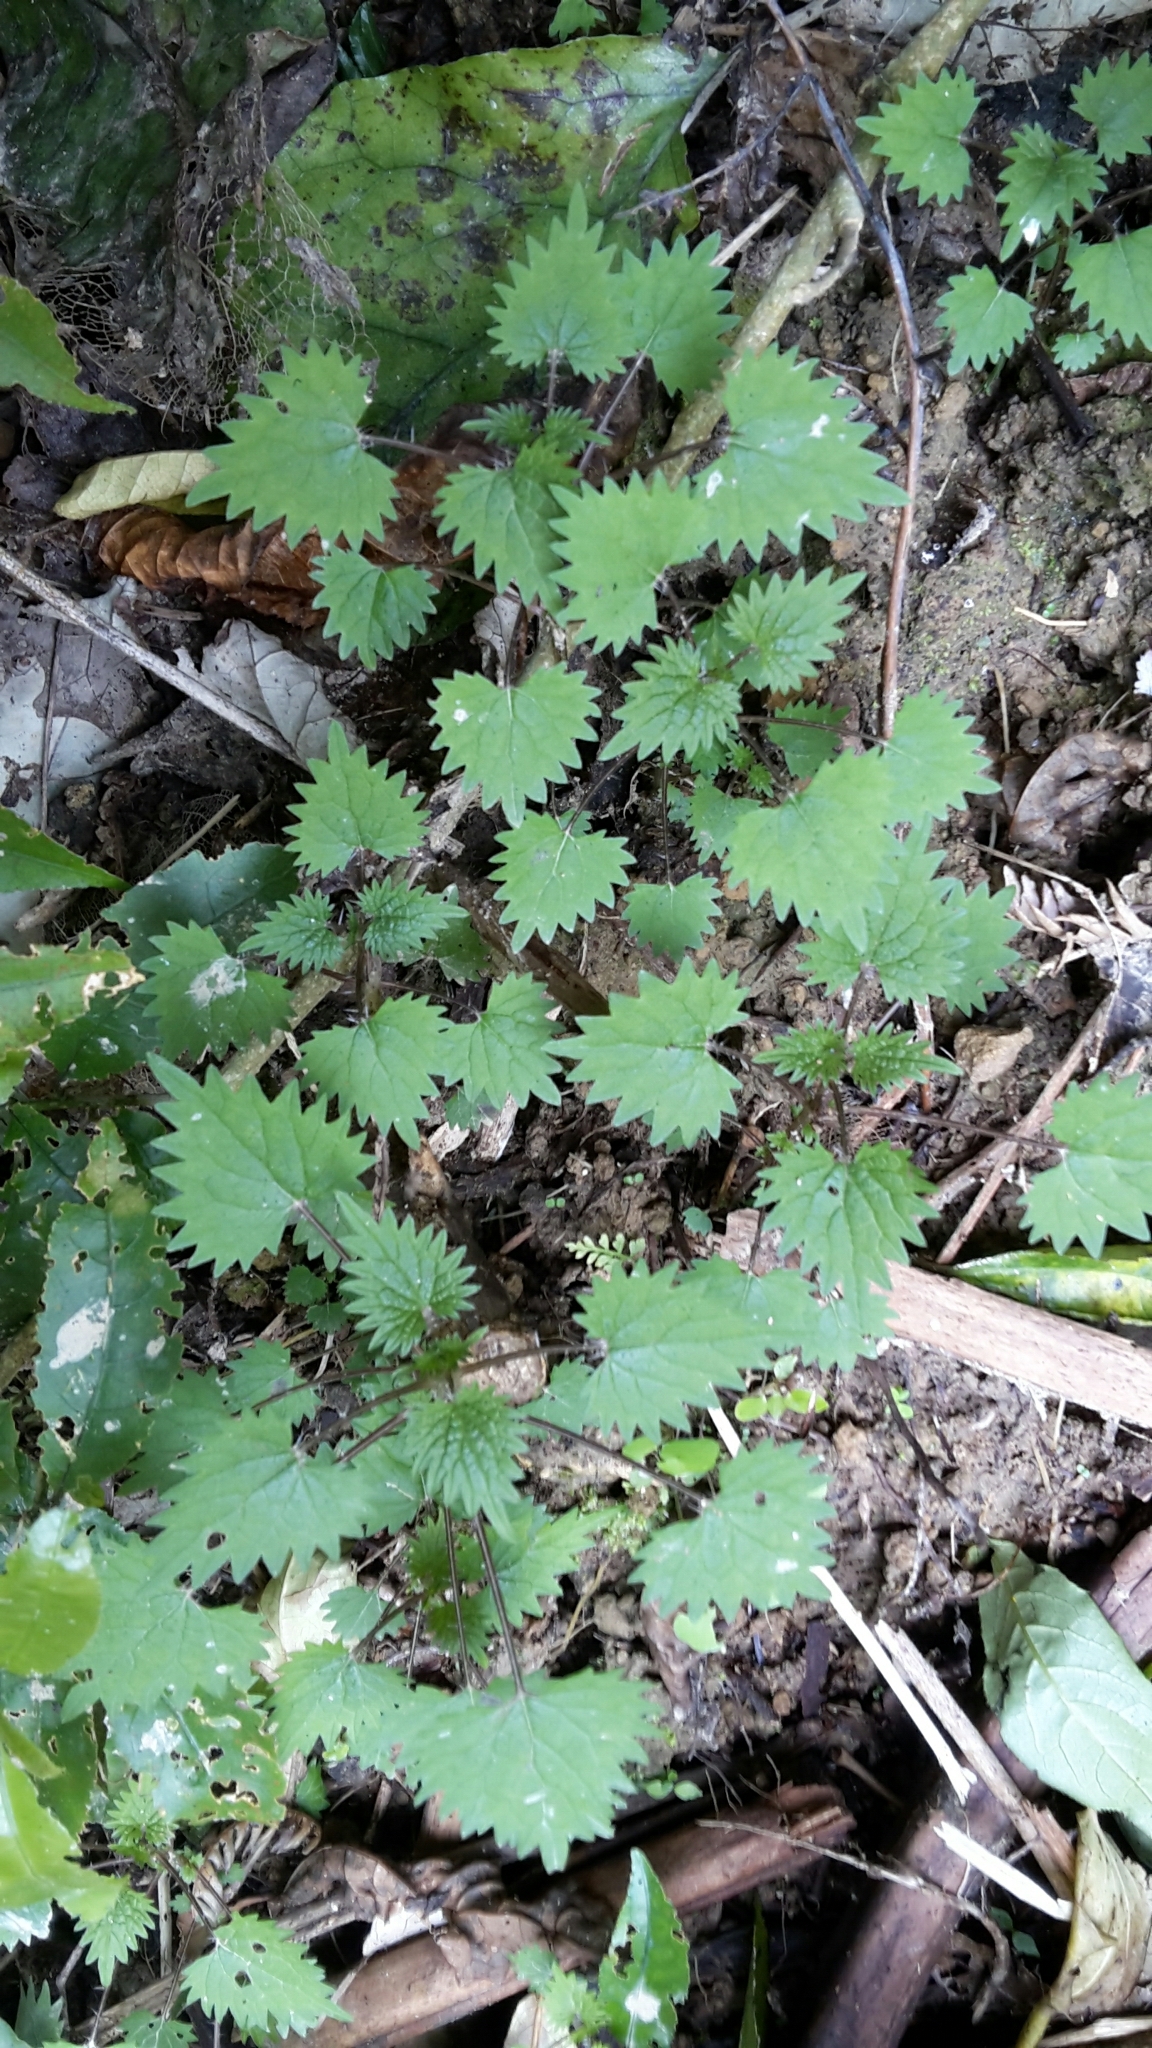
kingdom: Plantae
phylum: Tracheophyta
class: Magnoliopsida
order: Rosales
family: Urticaceae
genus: Urtica
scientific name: Urtica sykesii
